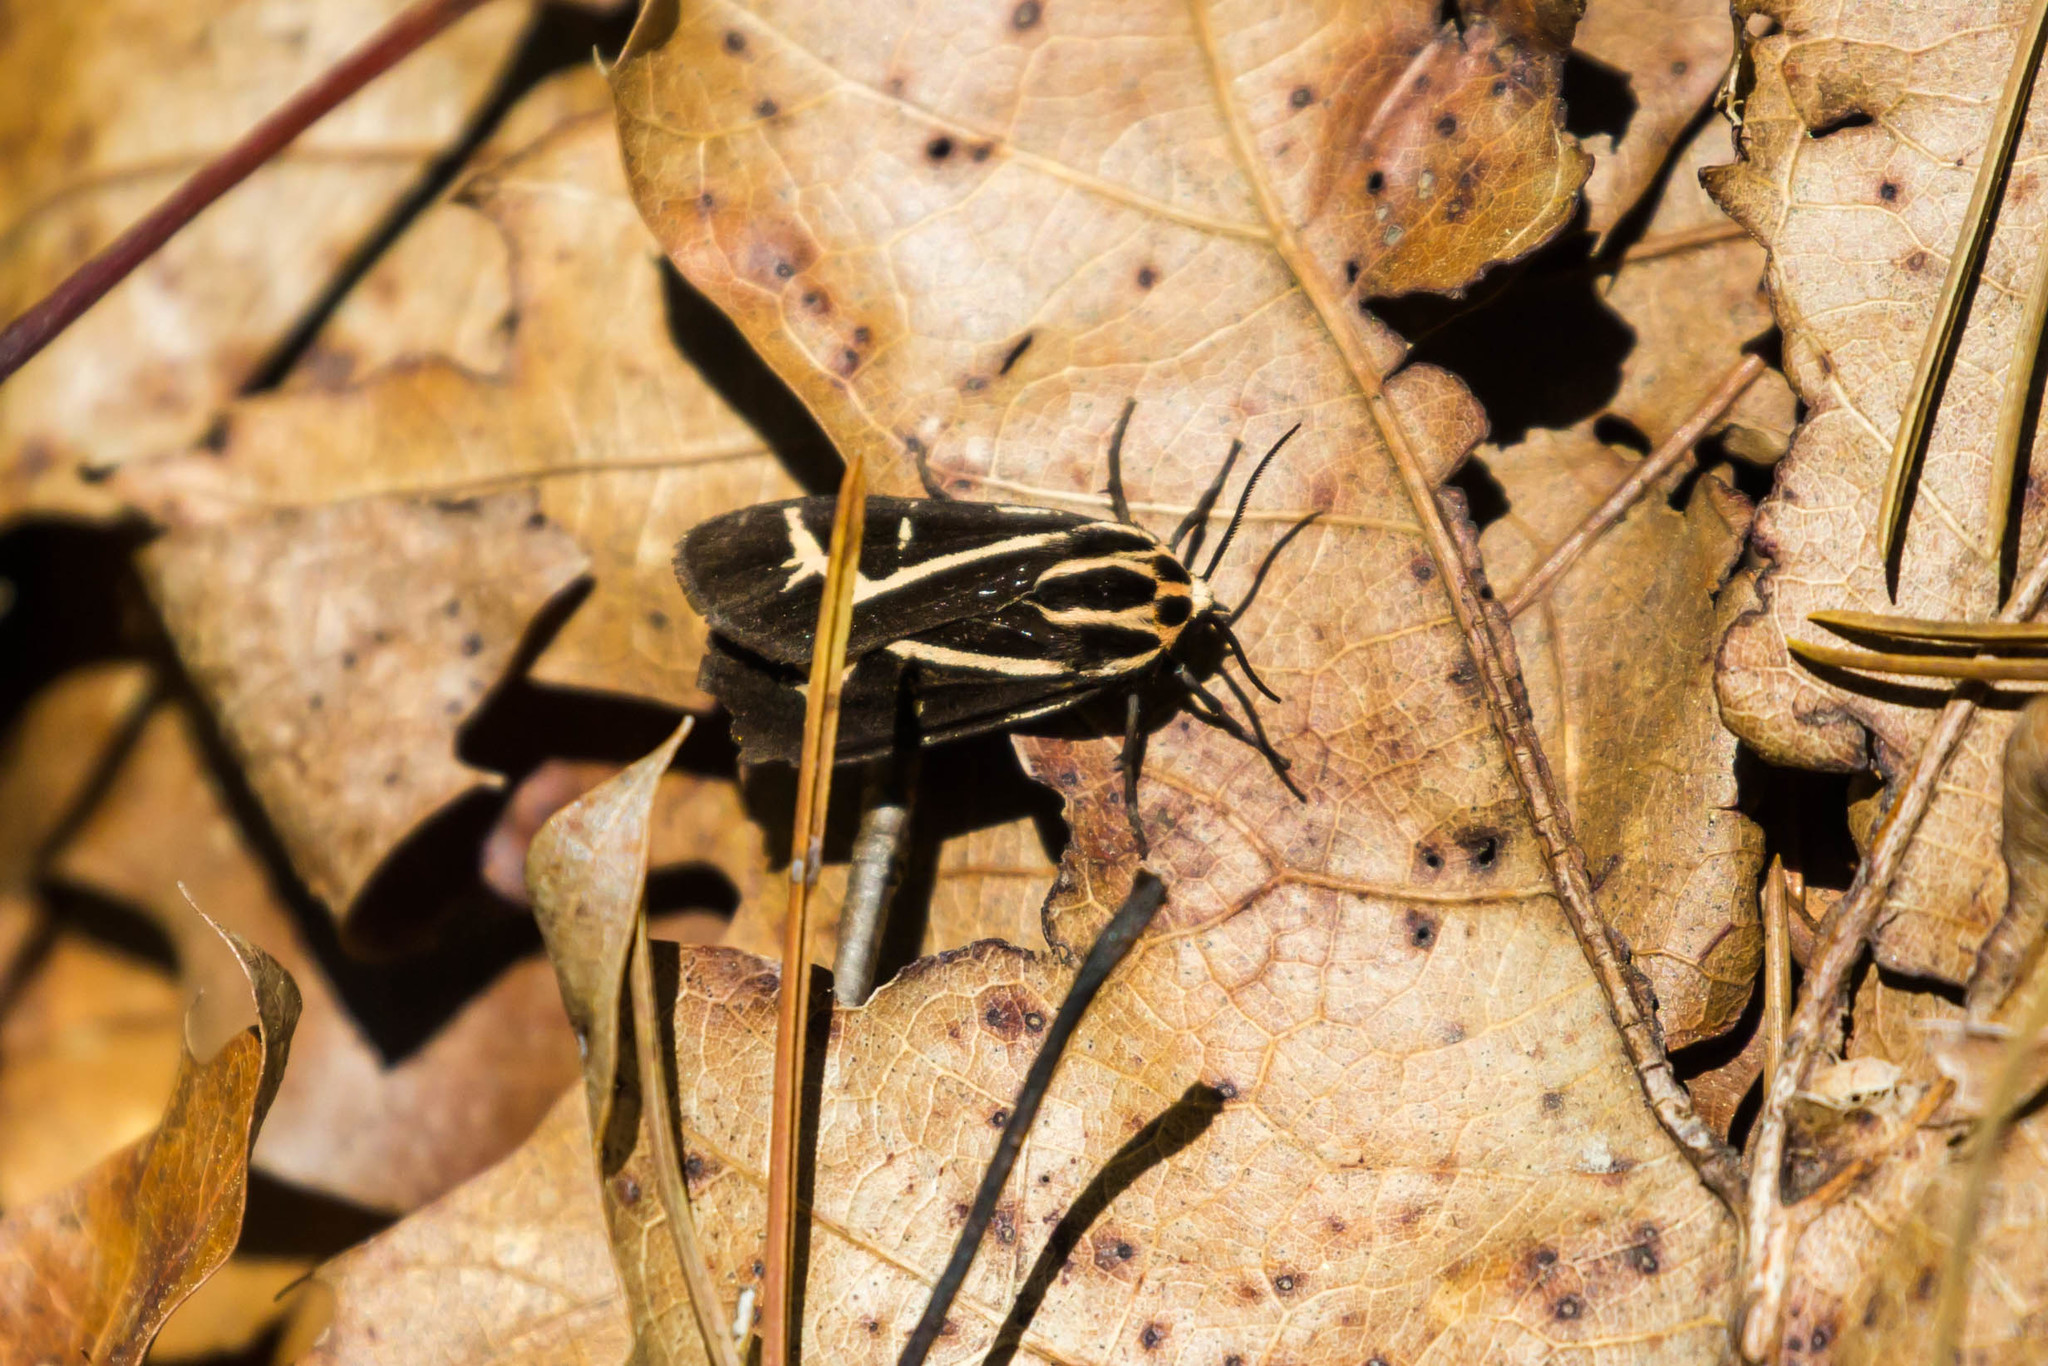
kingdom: Animalia
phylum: Arthropoda
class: Insecta
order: Lepidoptera
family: Erebidae
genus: Apantesis
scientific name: Apantesis
